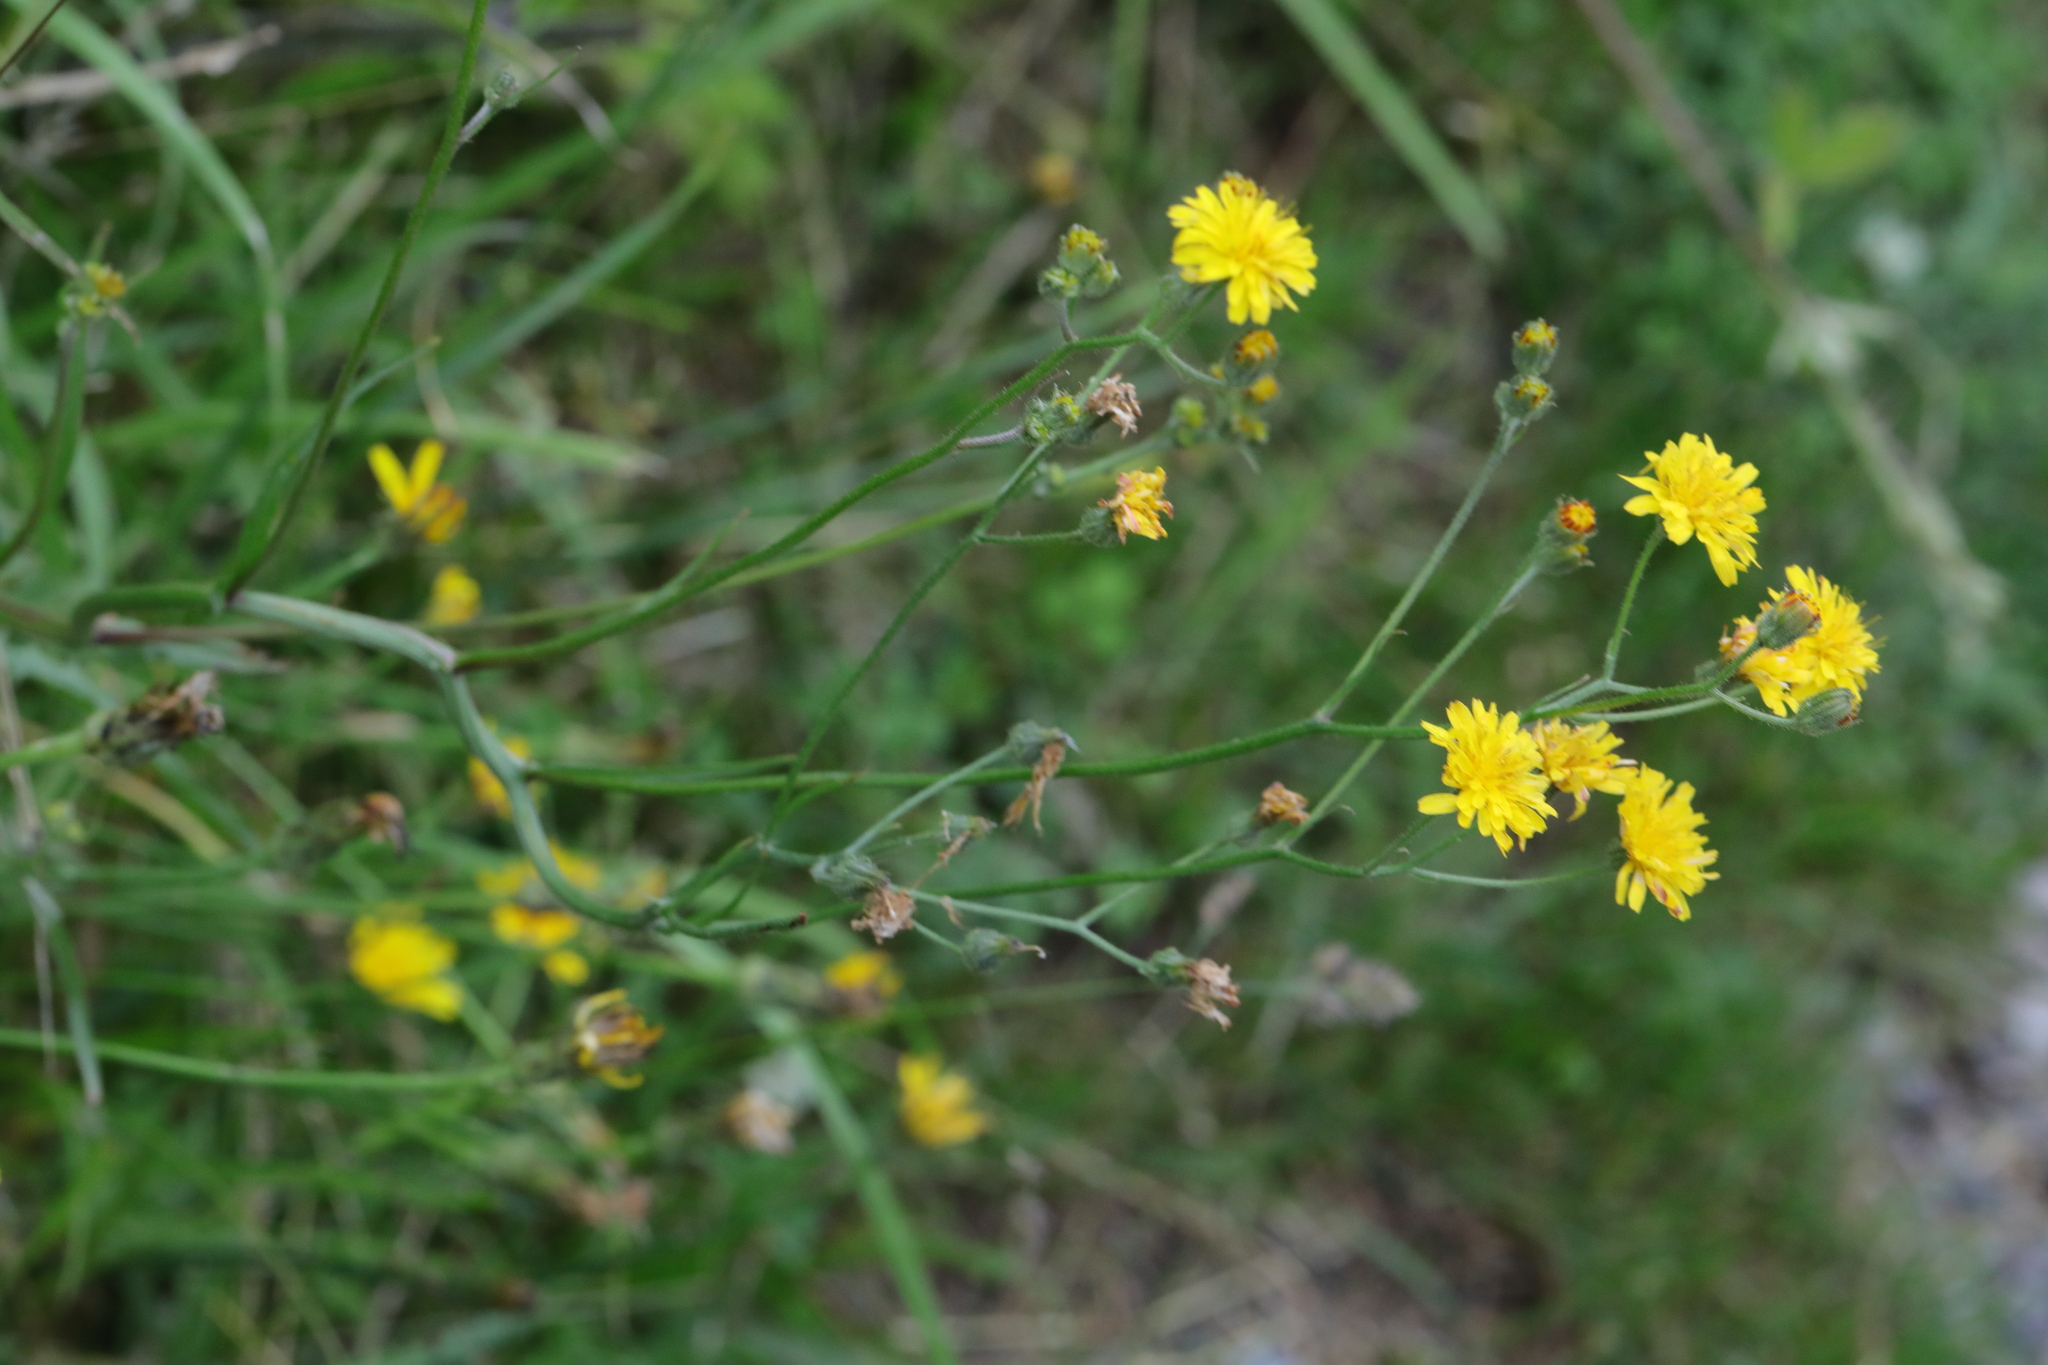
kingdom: Plantae
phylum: Tracheophyta
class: Magnoliopsida
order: Asterales
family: Asteraceae
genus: Crepis
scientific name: Crepis capillaris
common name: Smooth hawksbeard
